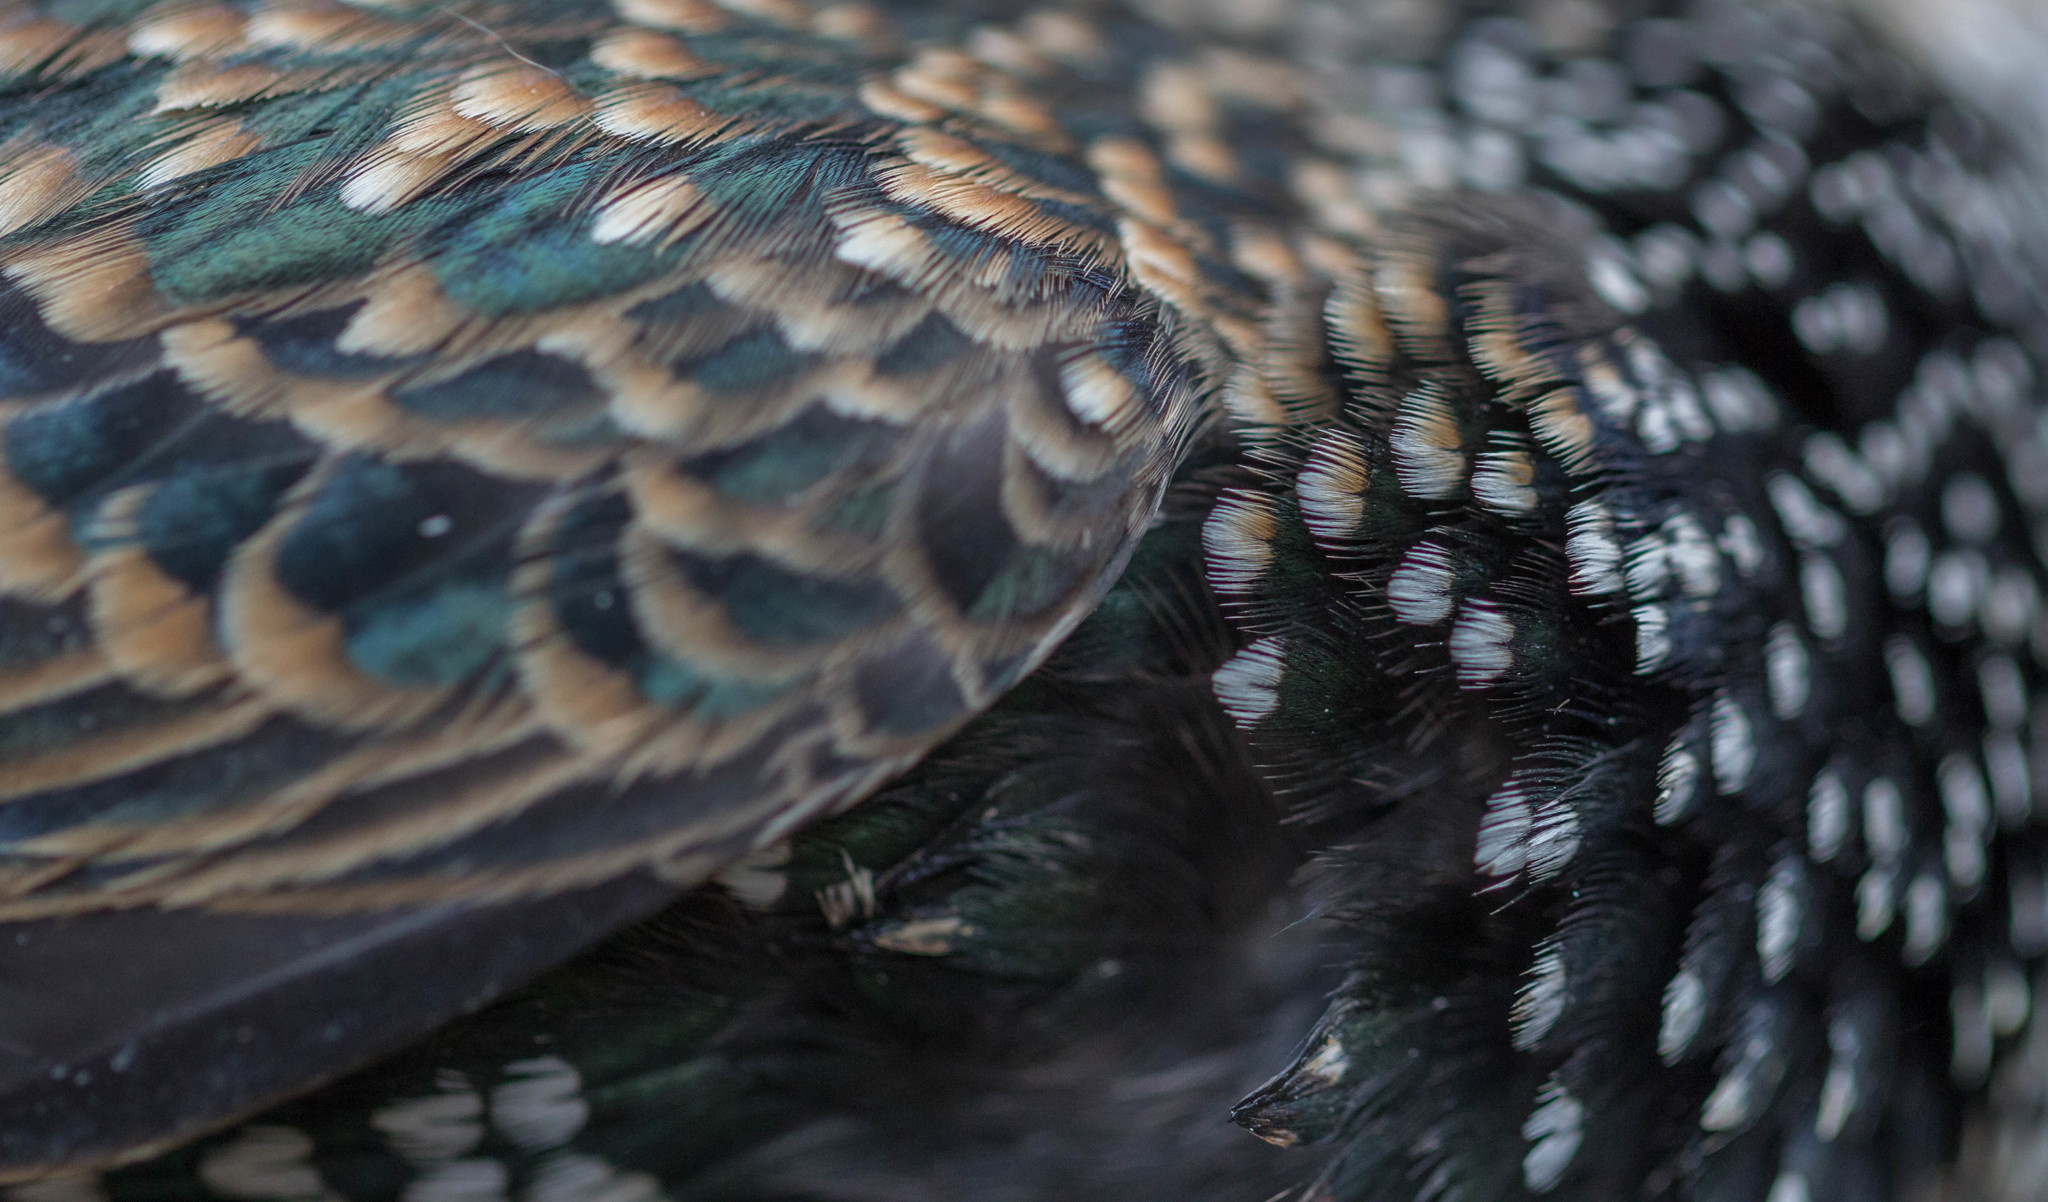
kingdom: Animalia
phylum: Chordata
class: Aves
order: Passeriformes
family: Sturnidae
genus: Sturnus
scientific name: Sturnus vulgaris
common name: Common starling
